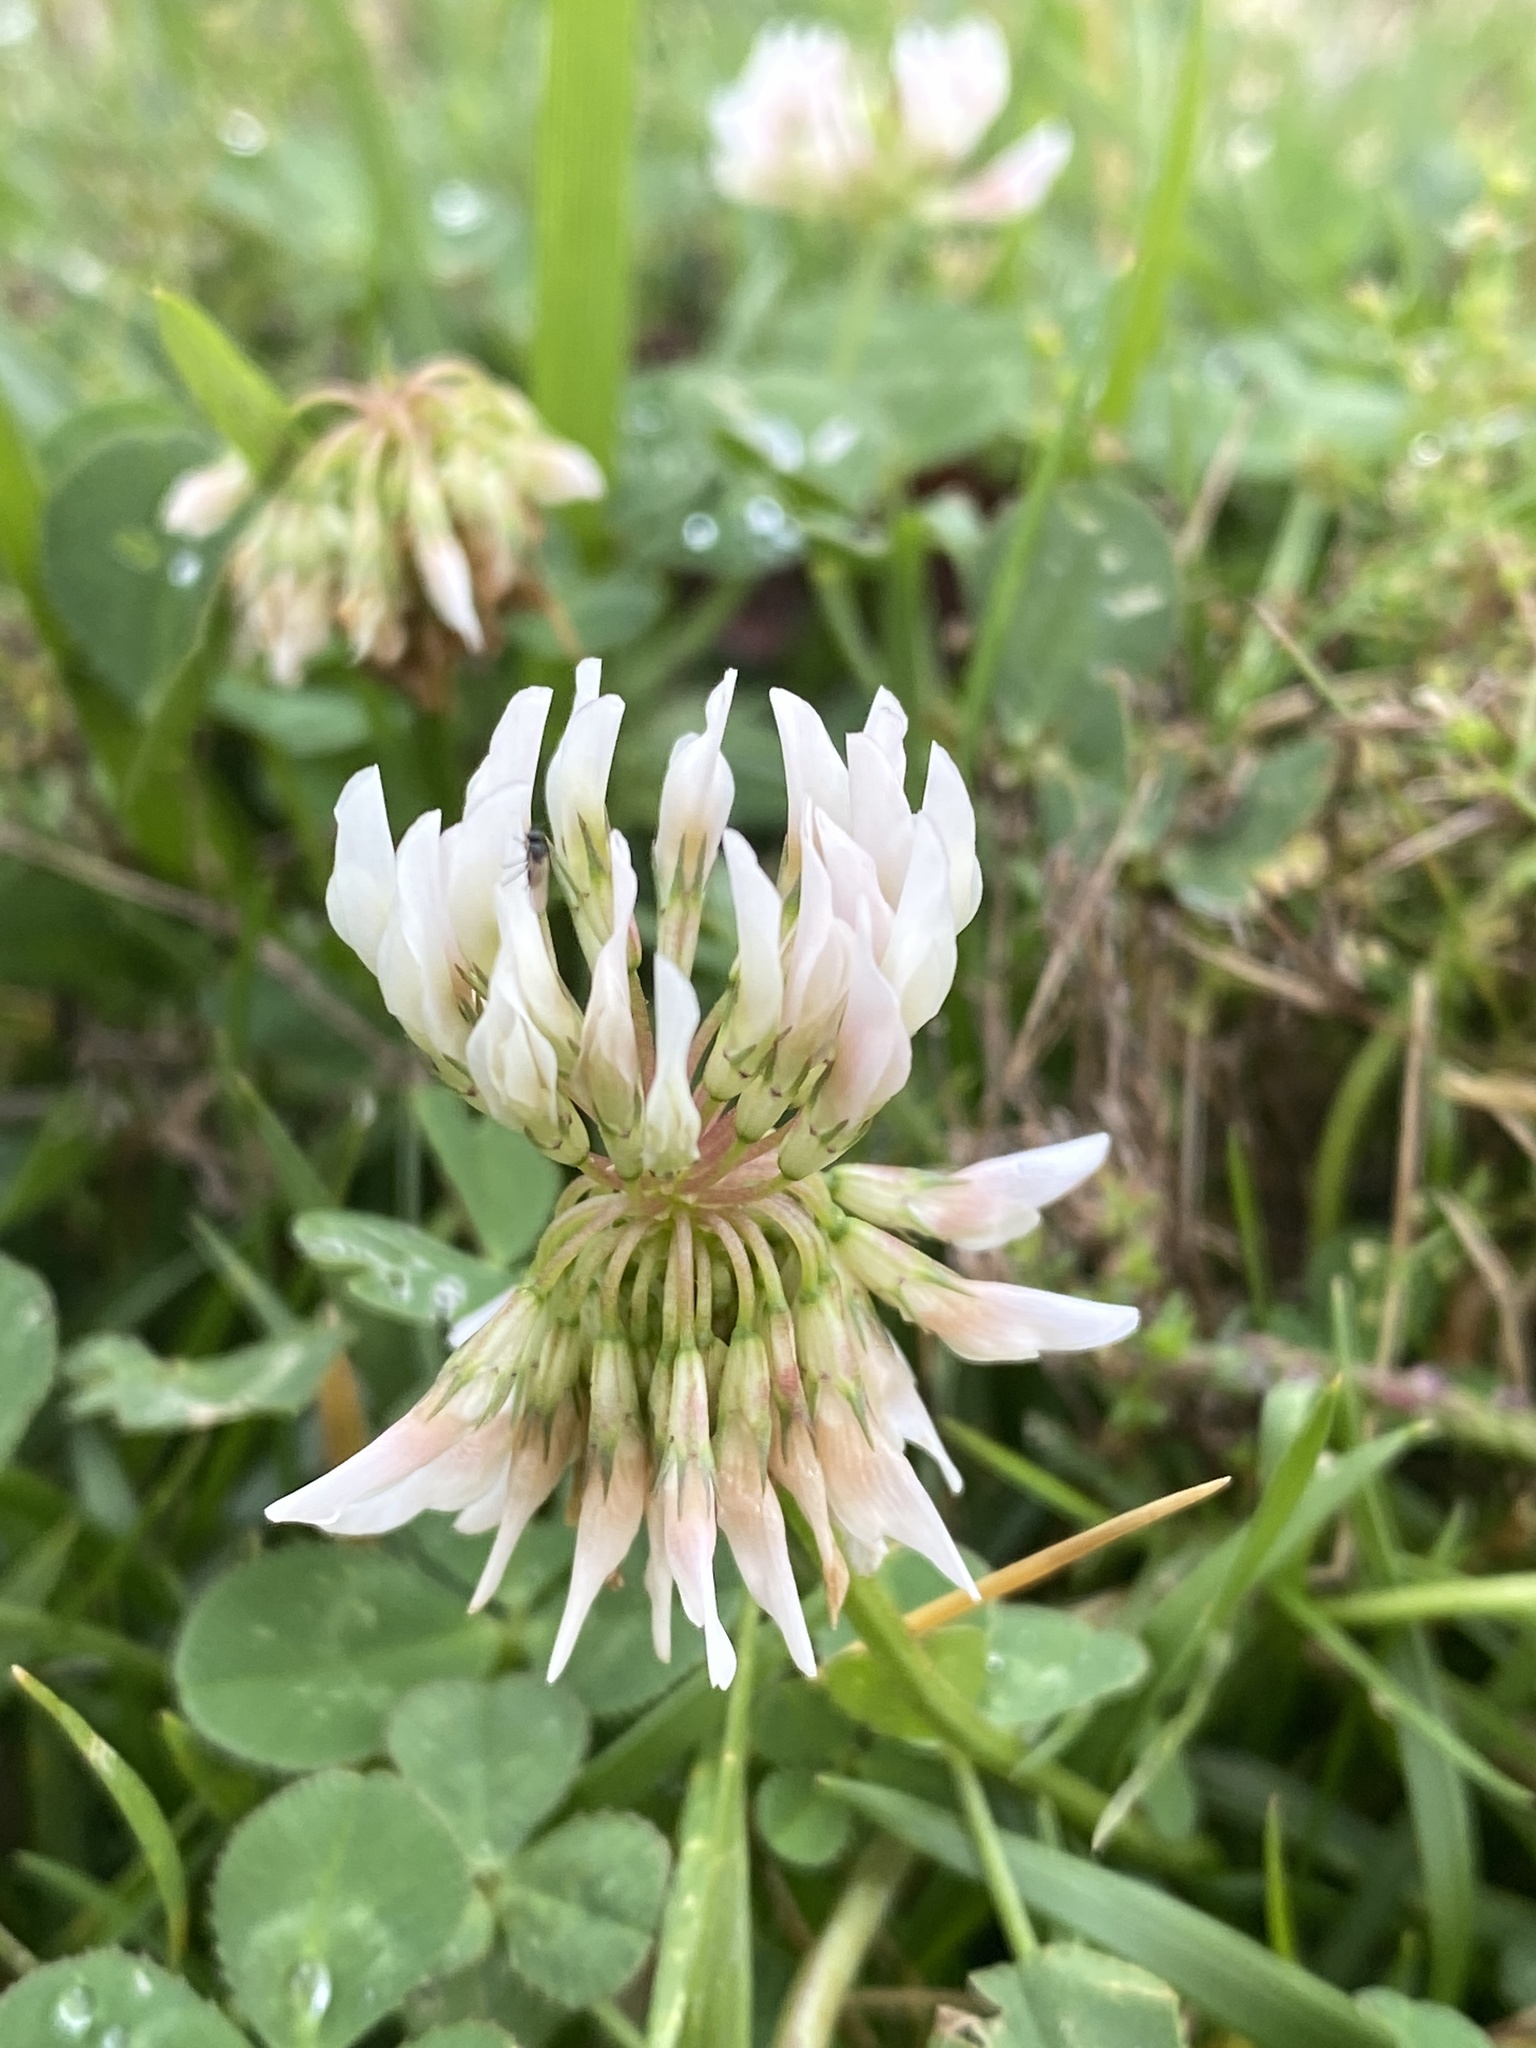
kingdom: Plantae
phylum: Tracheophyta
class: Magnoliopsida
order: Fabales
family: Fabaceae
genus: Trifolium
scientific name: Trifolium repens
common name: White clover
